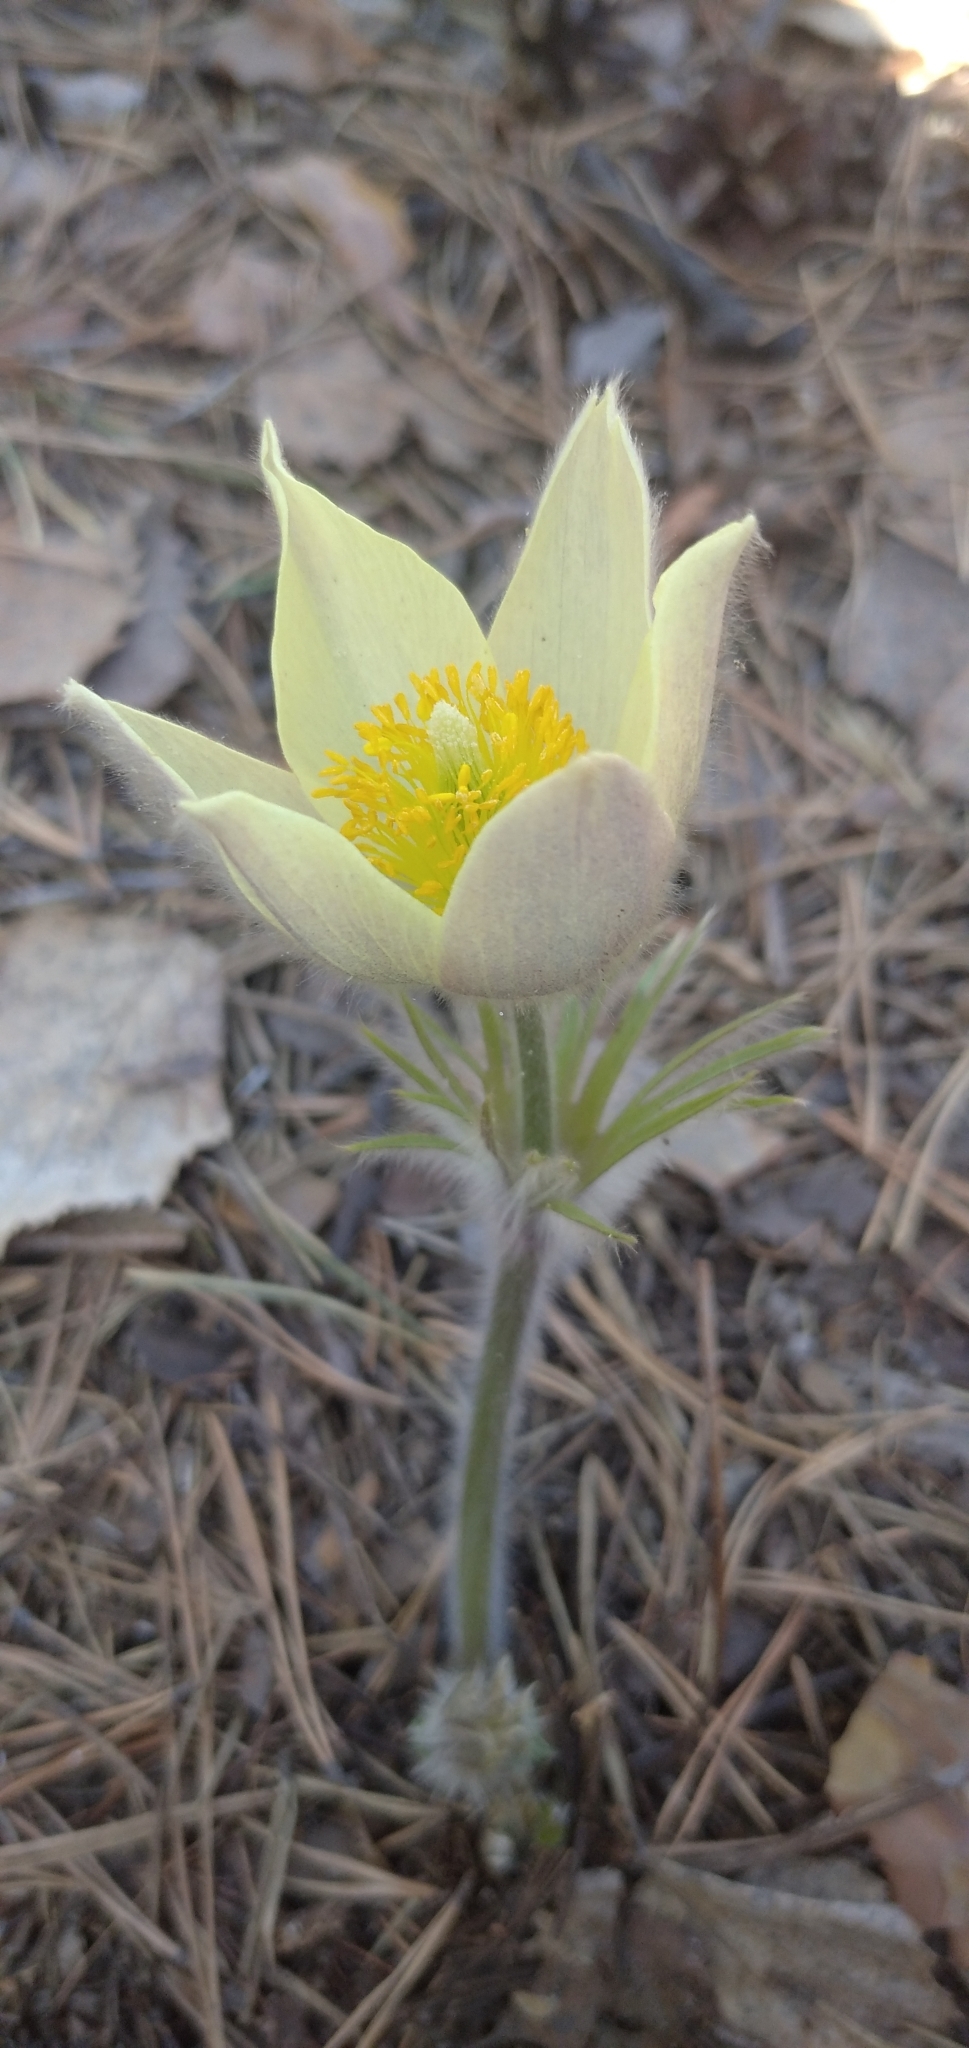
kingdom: Plantae
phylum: Tracheophyta
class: Magnoliopsida
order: Ranunculales
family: Ranunculaceae
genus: Pulsatilla
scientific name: Pulsatilla patens
